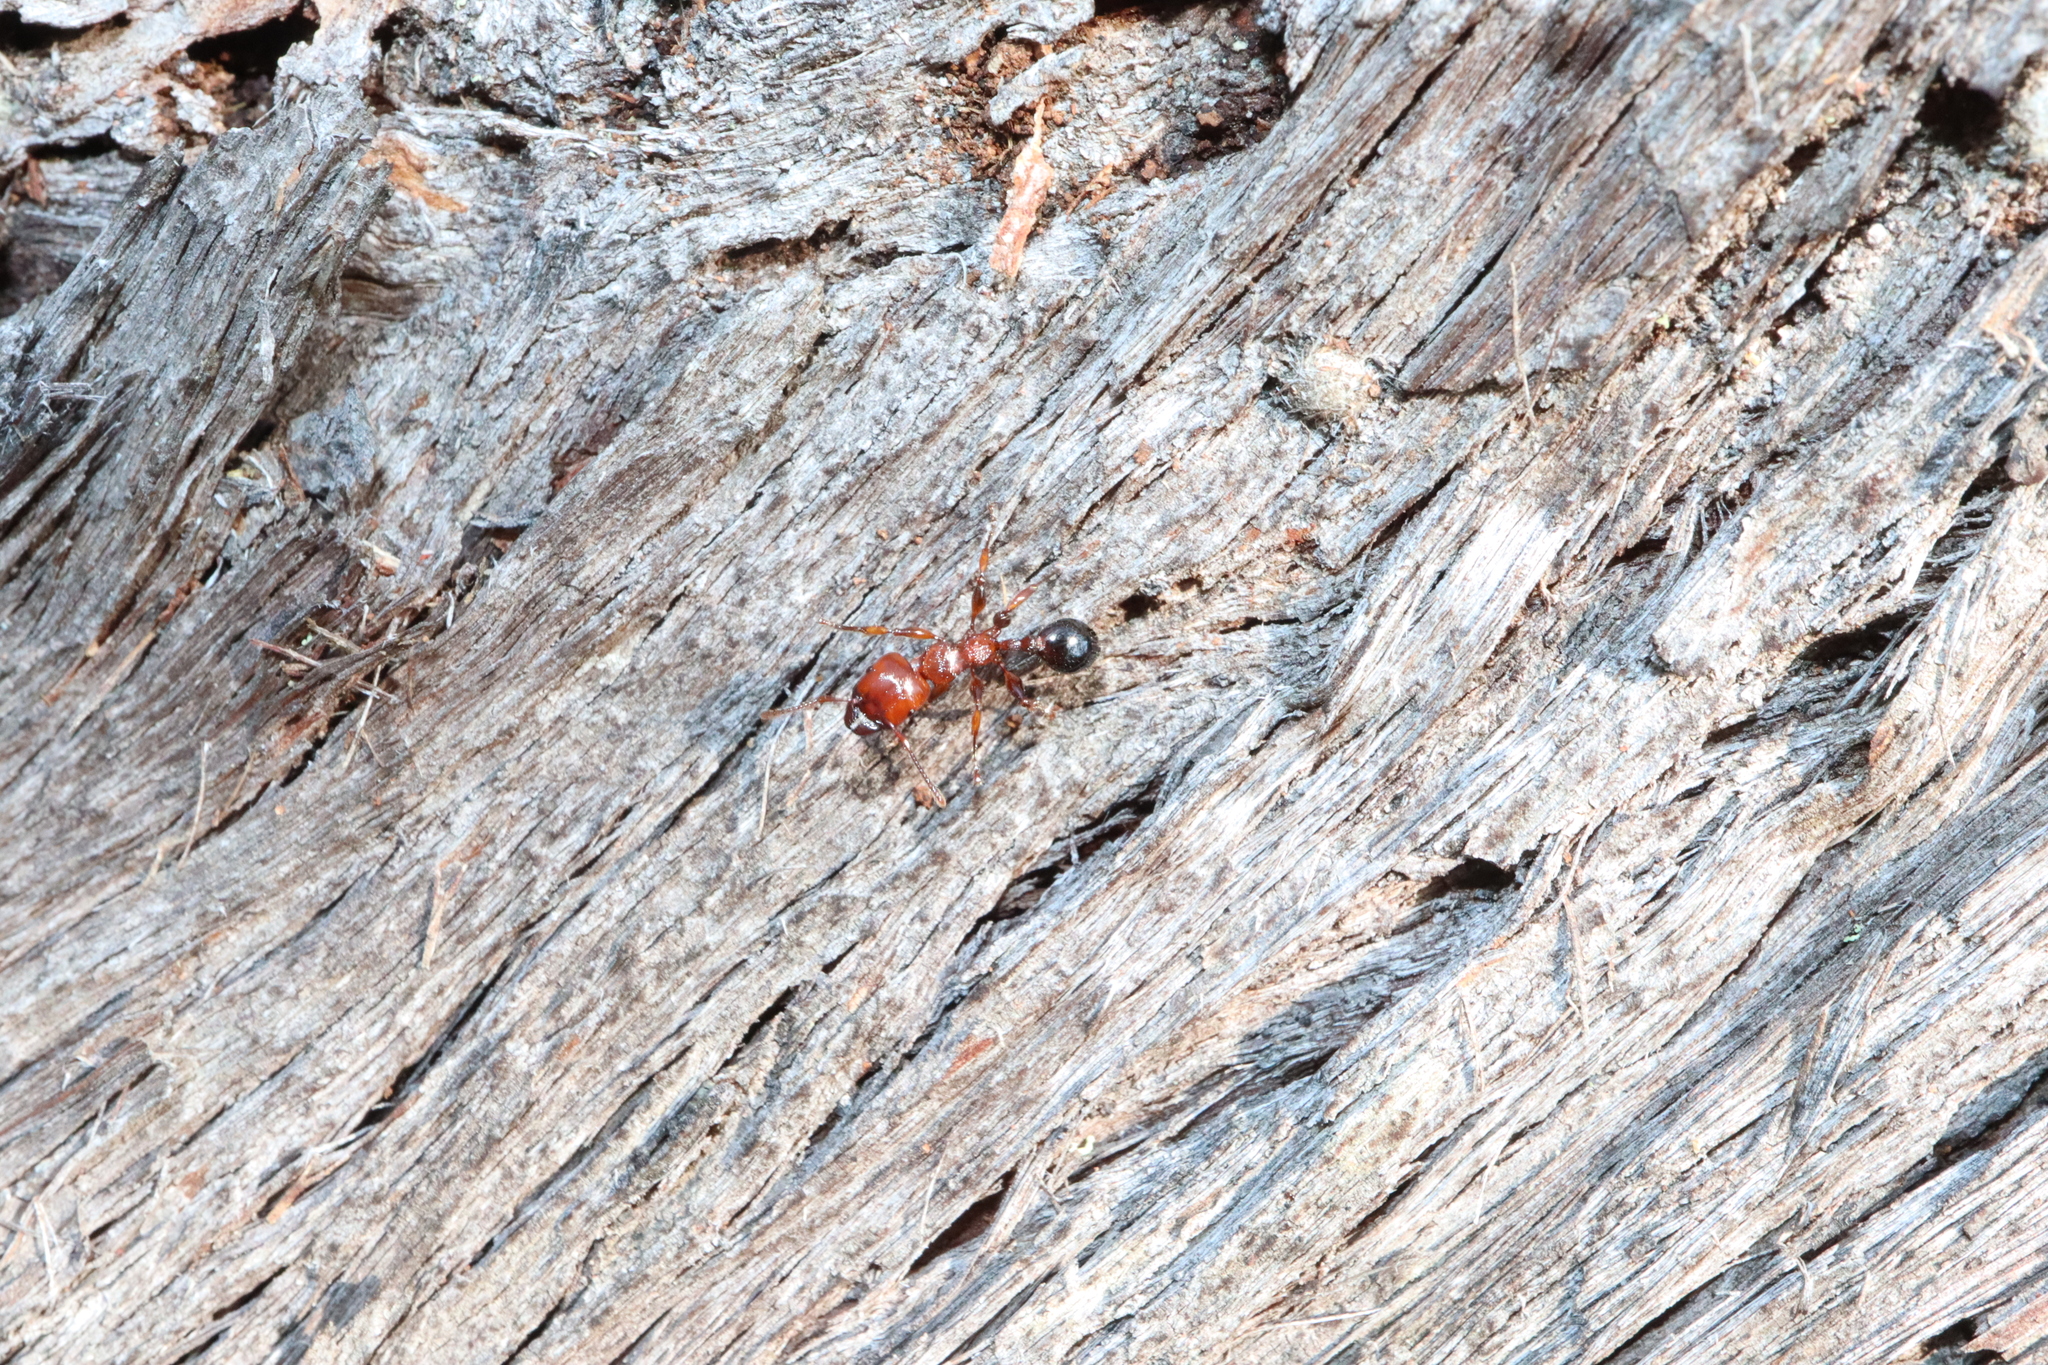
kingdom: Animalia
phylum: Arthropoda
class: Insecta
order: Hymenoptera
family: Formicidae
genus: Podomyrma
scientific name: Podomyrma gratiosa
